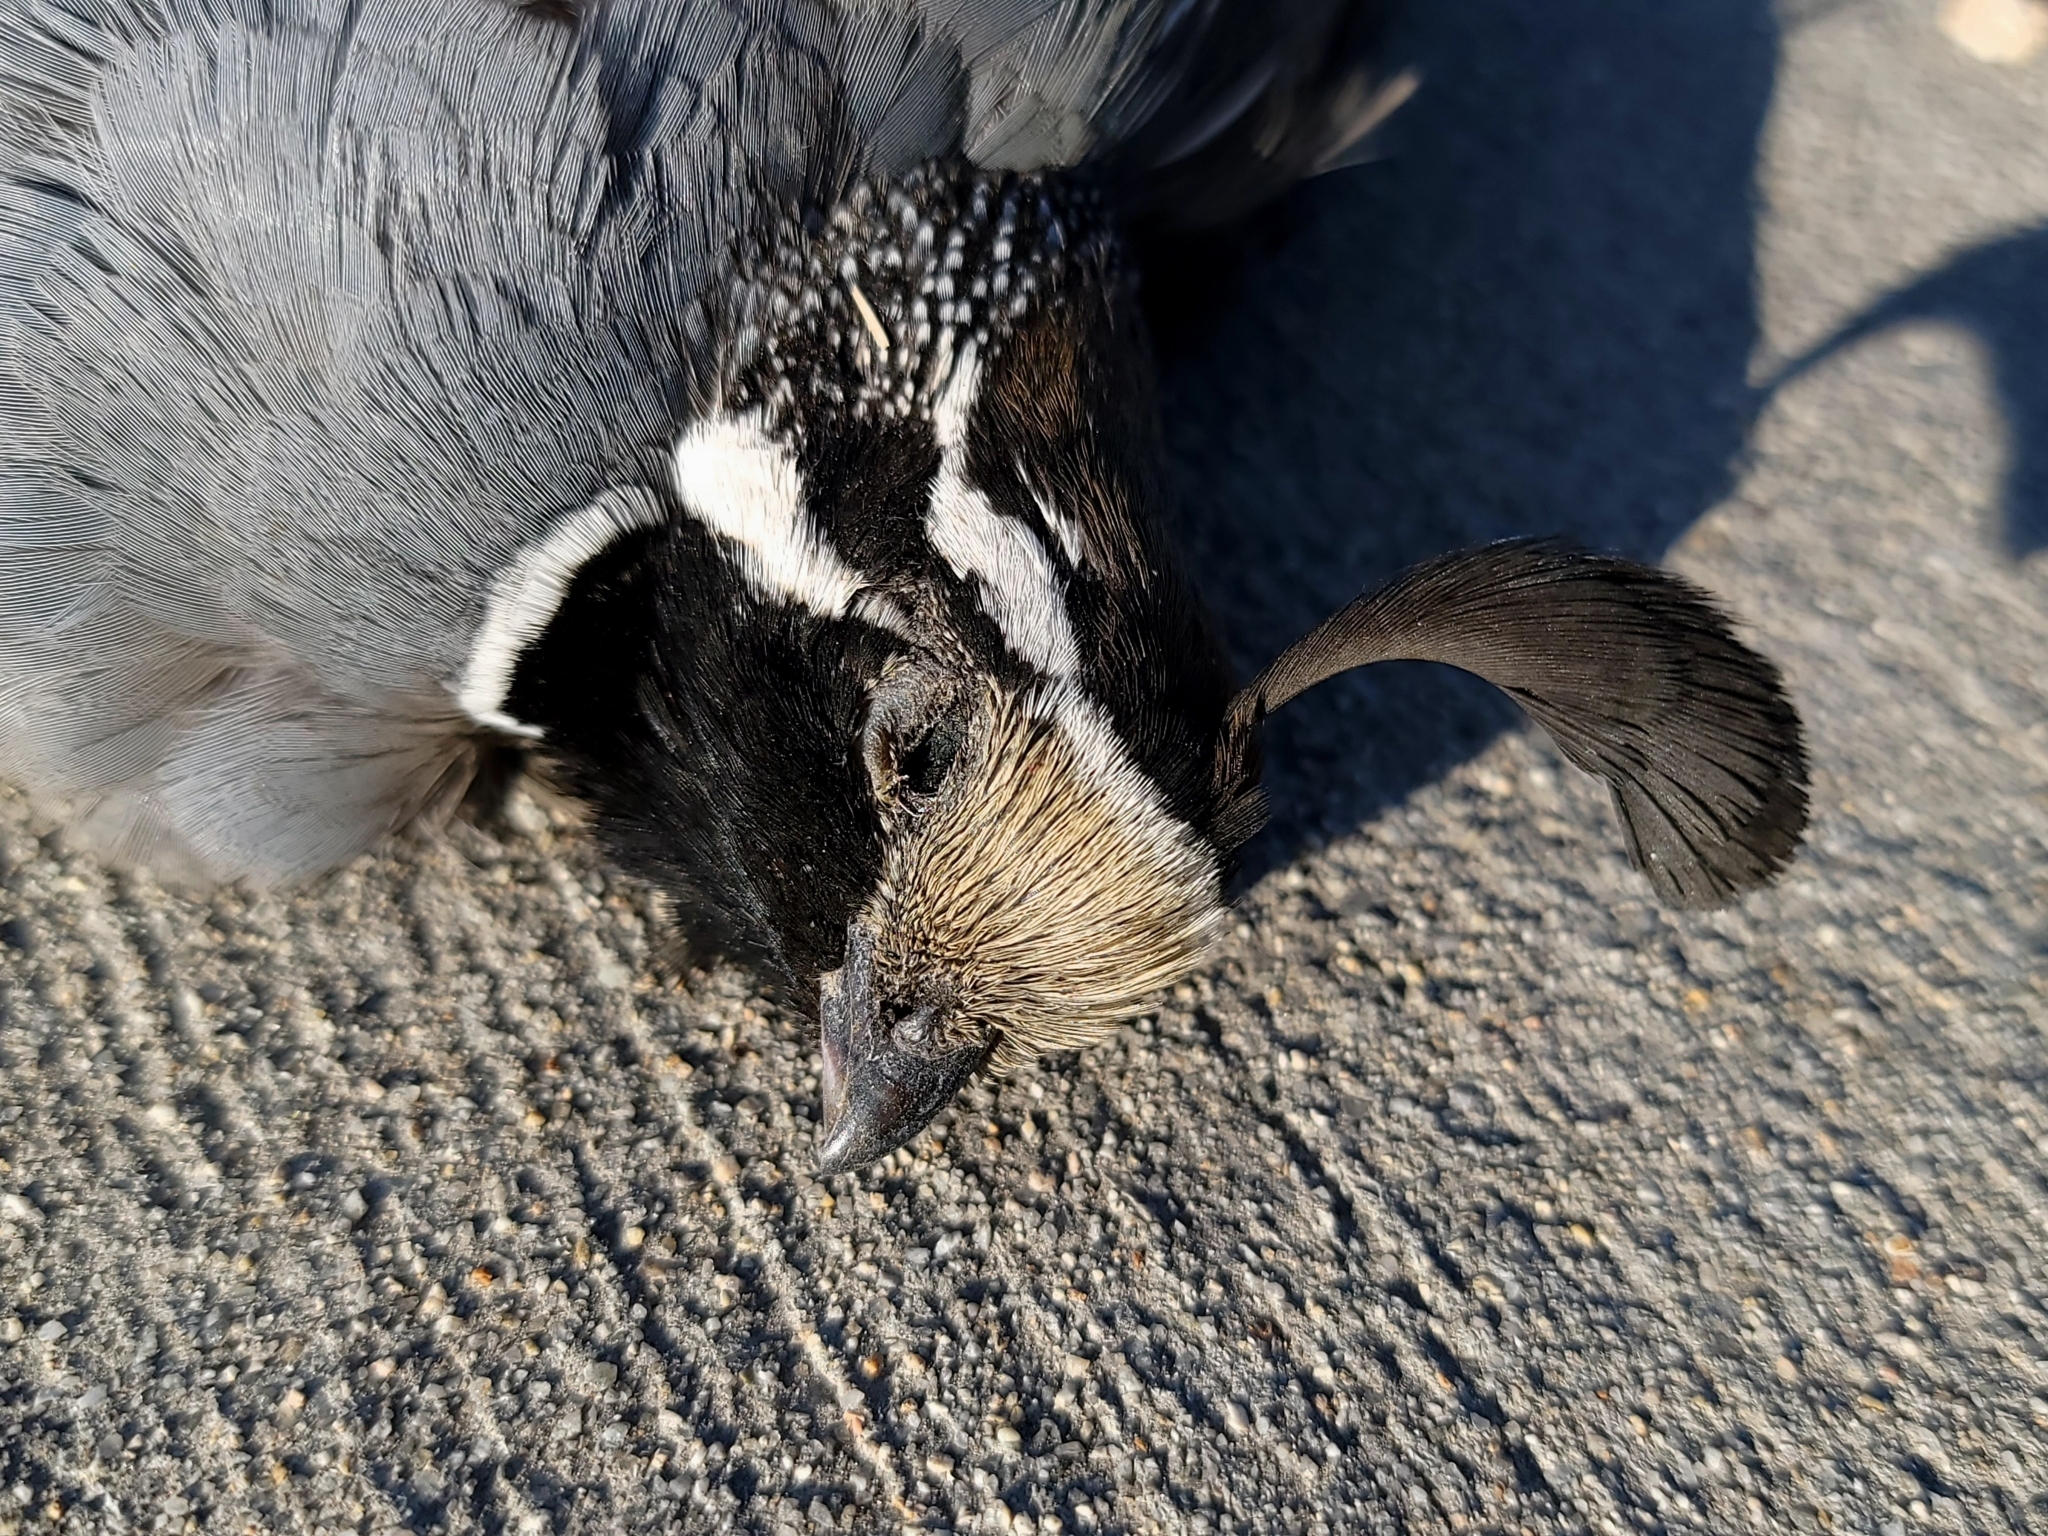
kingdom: Animalia
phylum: Chordata
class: Aves
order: Galliformes
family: Odontophoridae
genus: Callipepla
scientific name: Callipepla californica
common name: California quail
